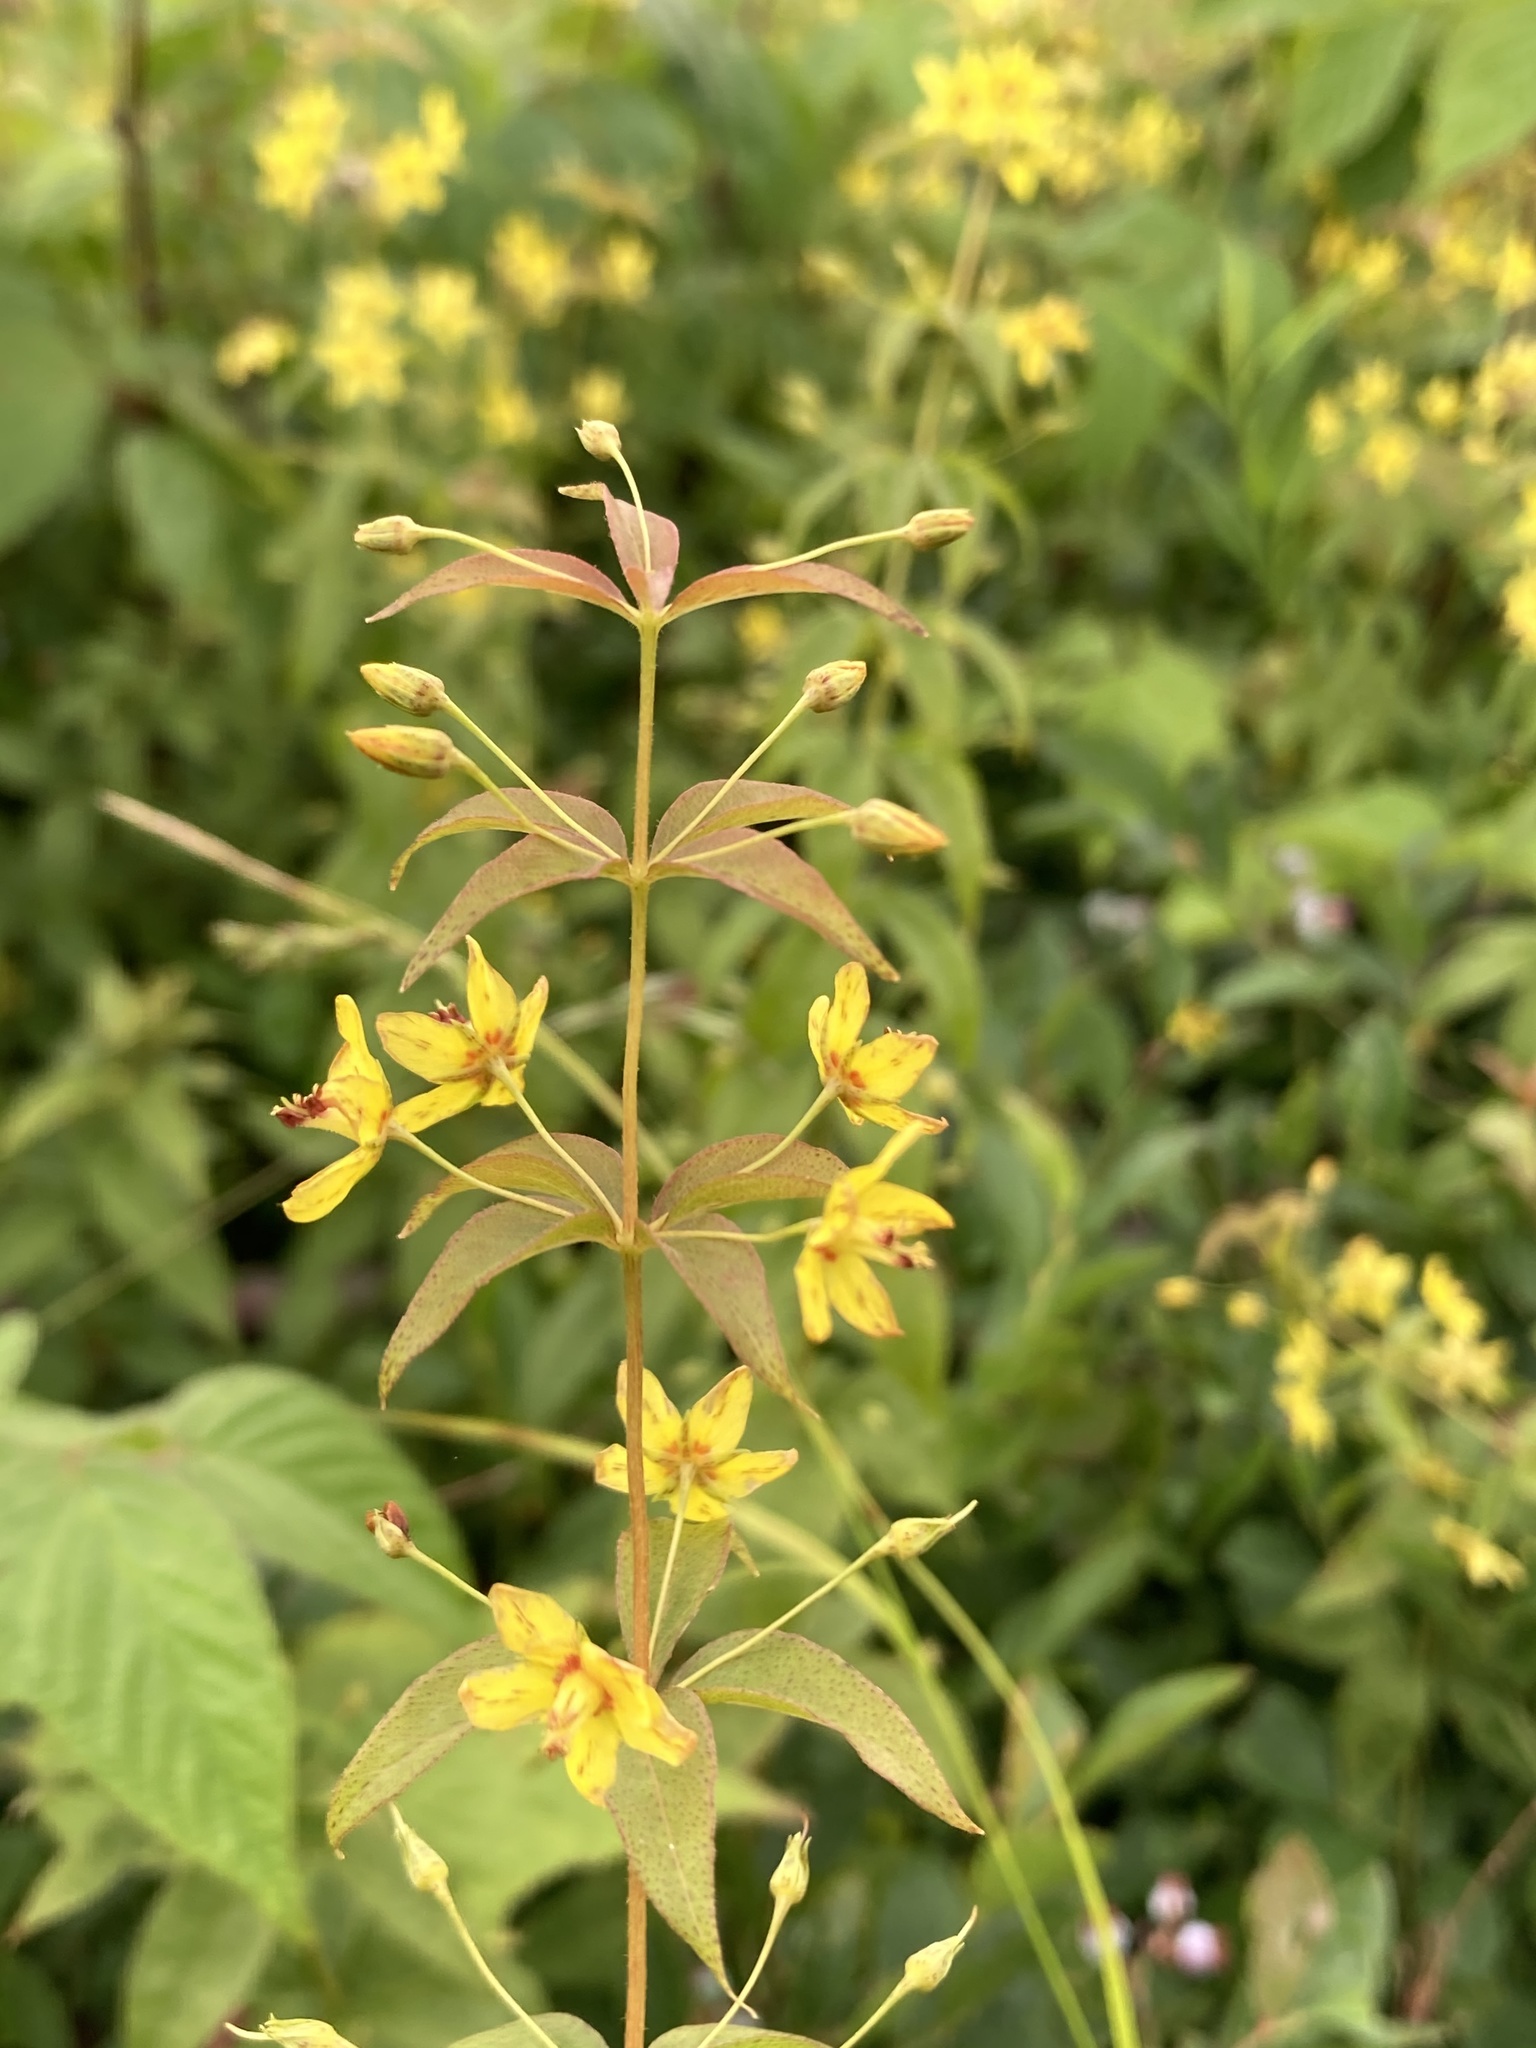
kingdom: Plantae
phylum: Tracheophyta
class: Magnoliopsida
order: Ericales
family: Primulaceae
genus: Lysimachia
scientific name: Lysimachia quadrifolia
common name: Whorled loosestrife
